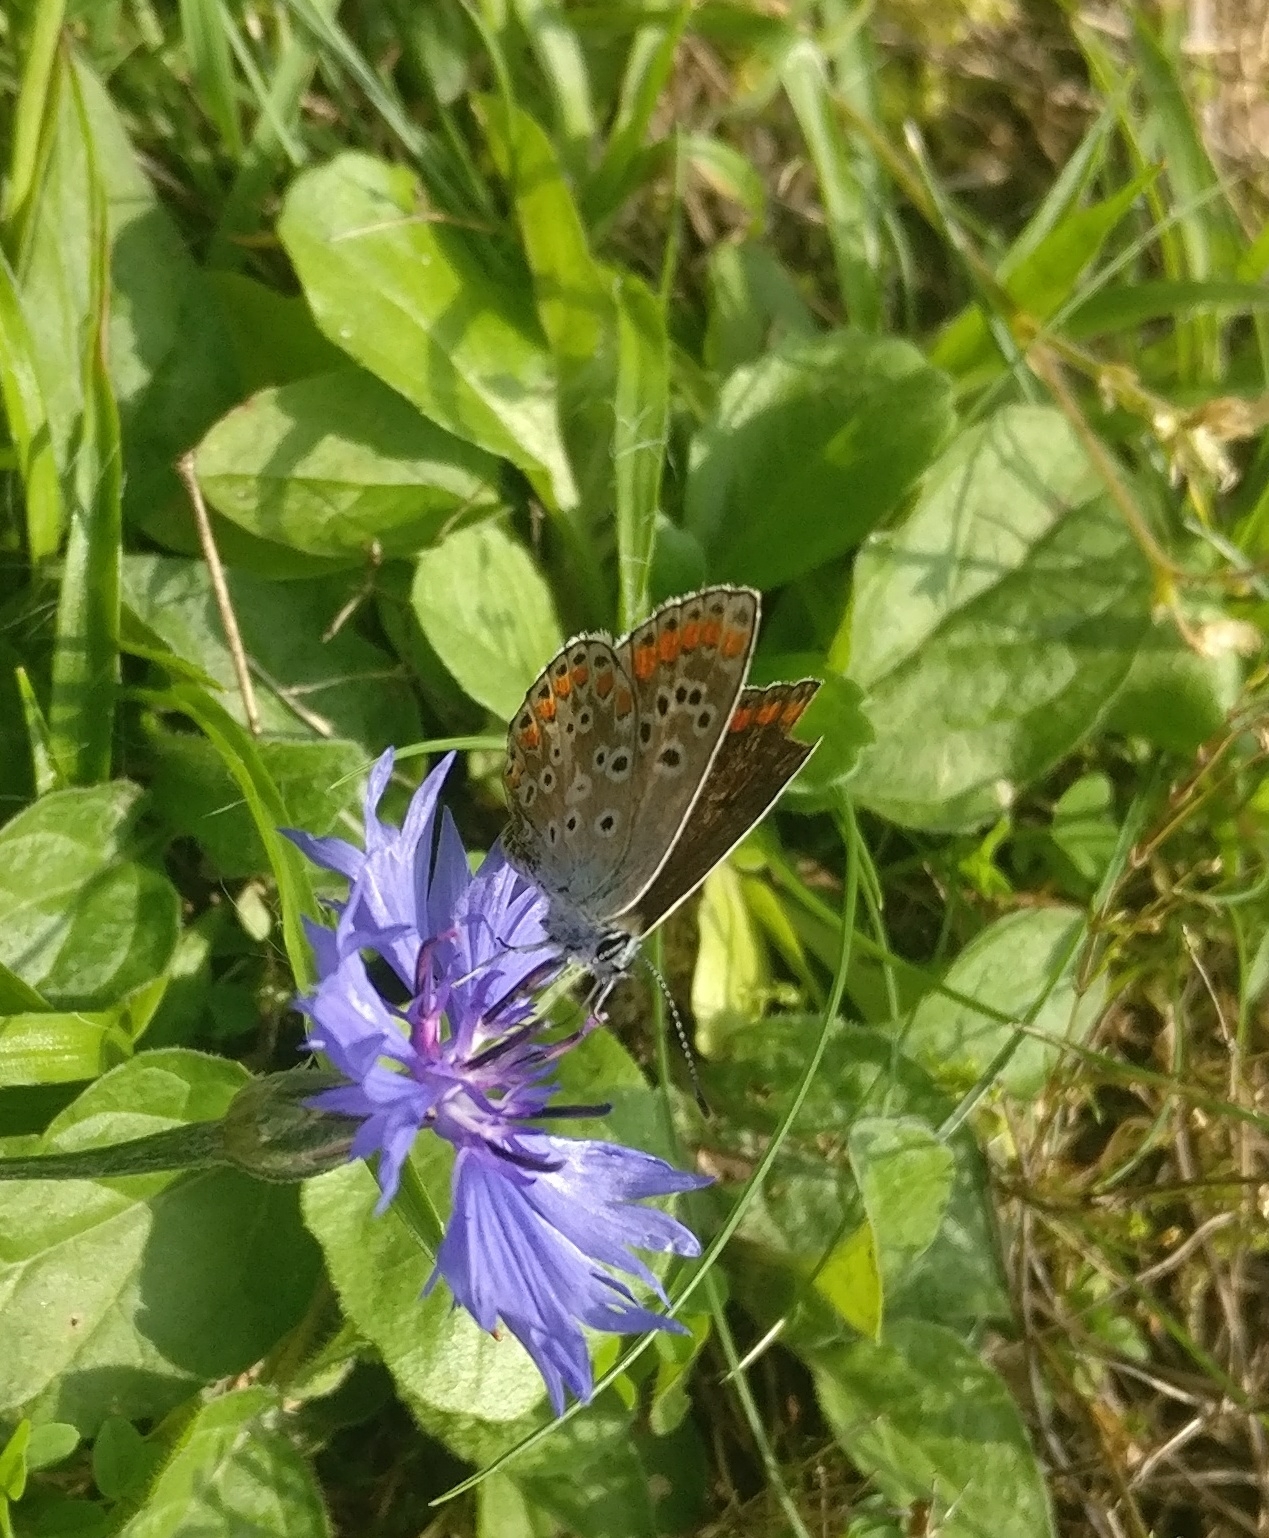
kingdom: Animalia
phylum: Arthropoda
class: Insecta
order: Lepidoptera
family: Lycaenidae
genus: Aricia
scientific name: Aricia agestis
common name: Brown argus
